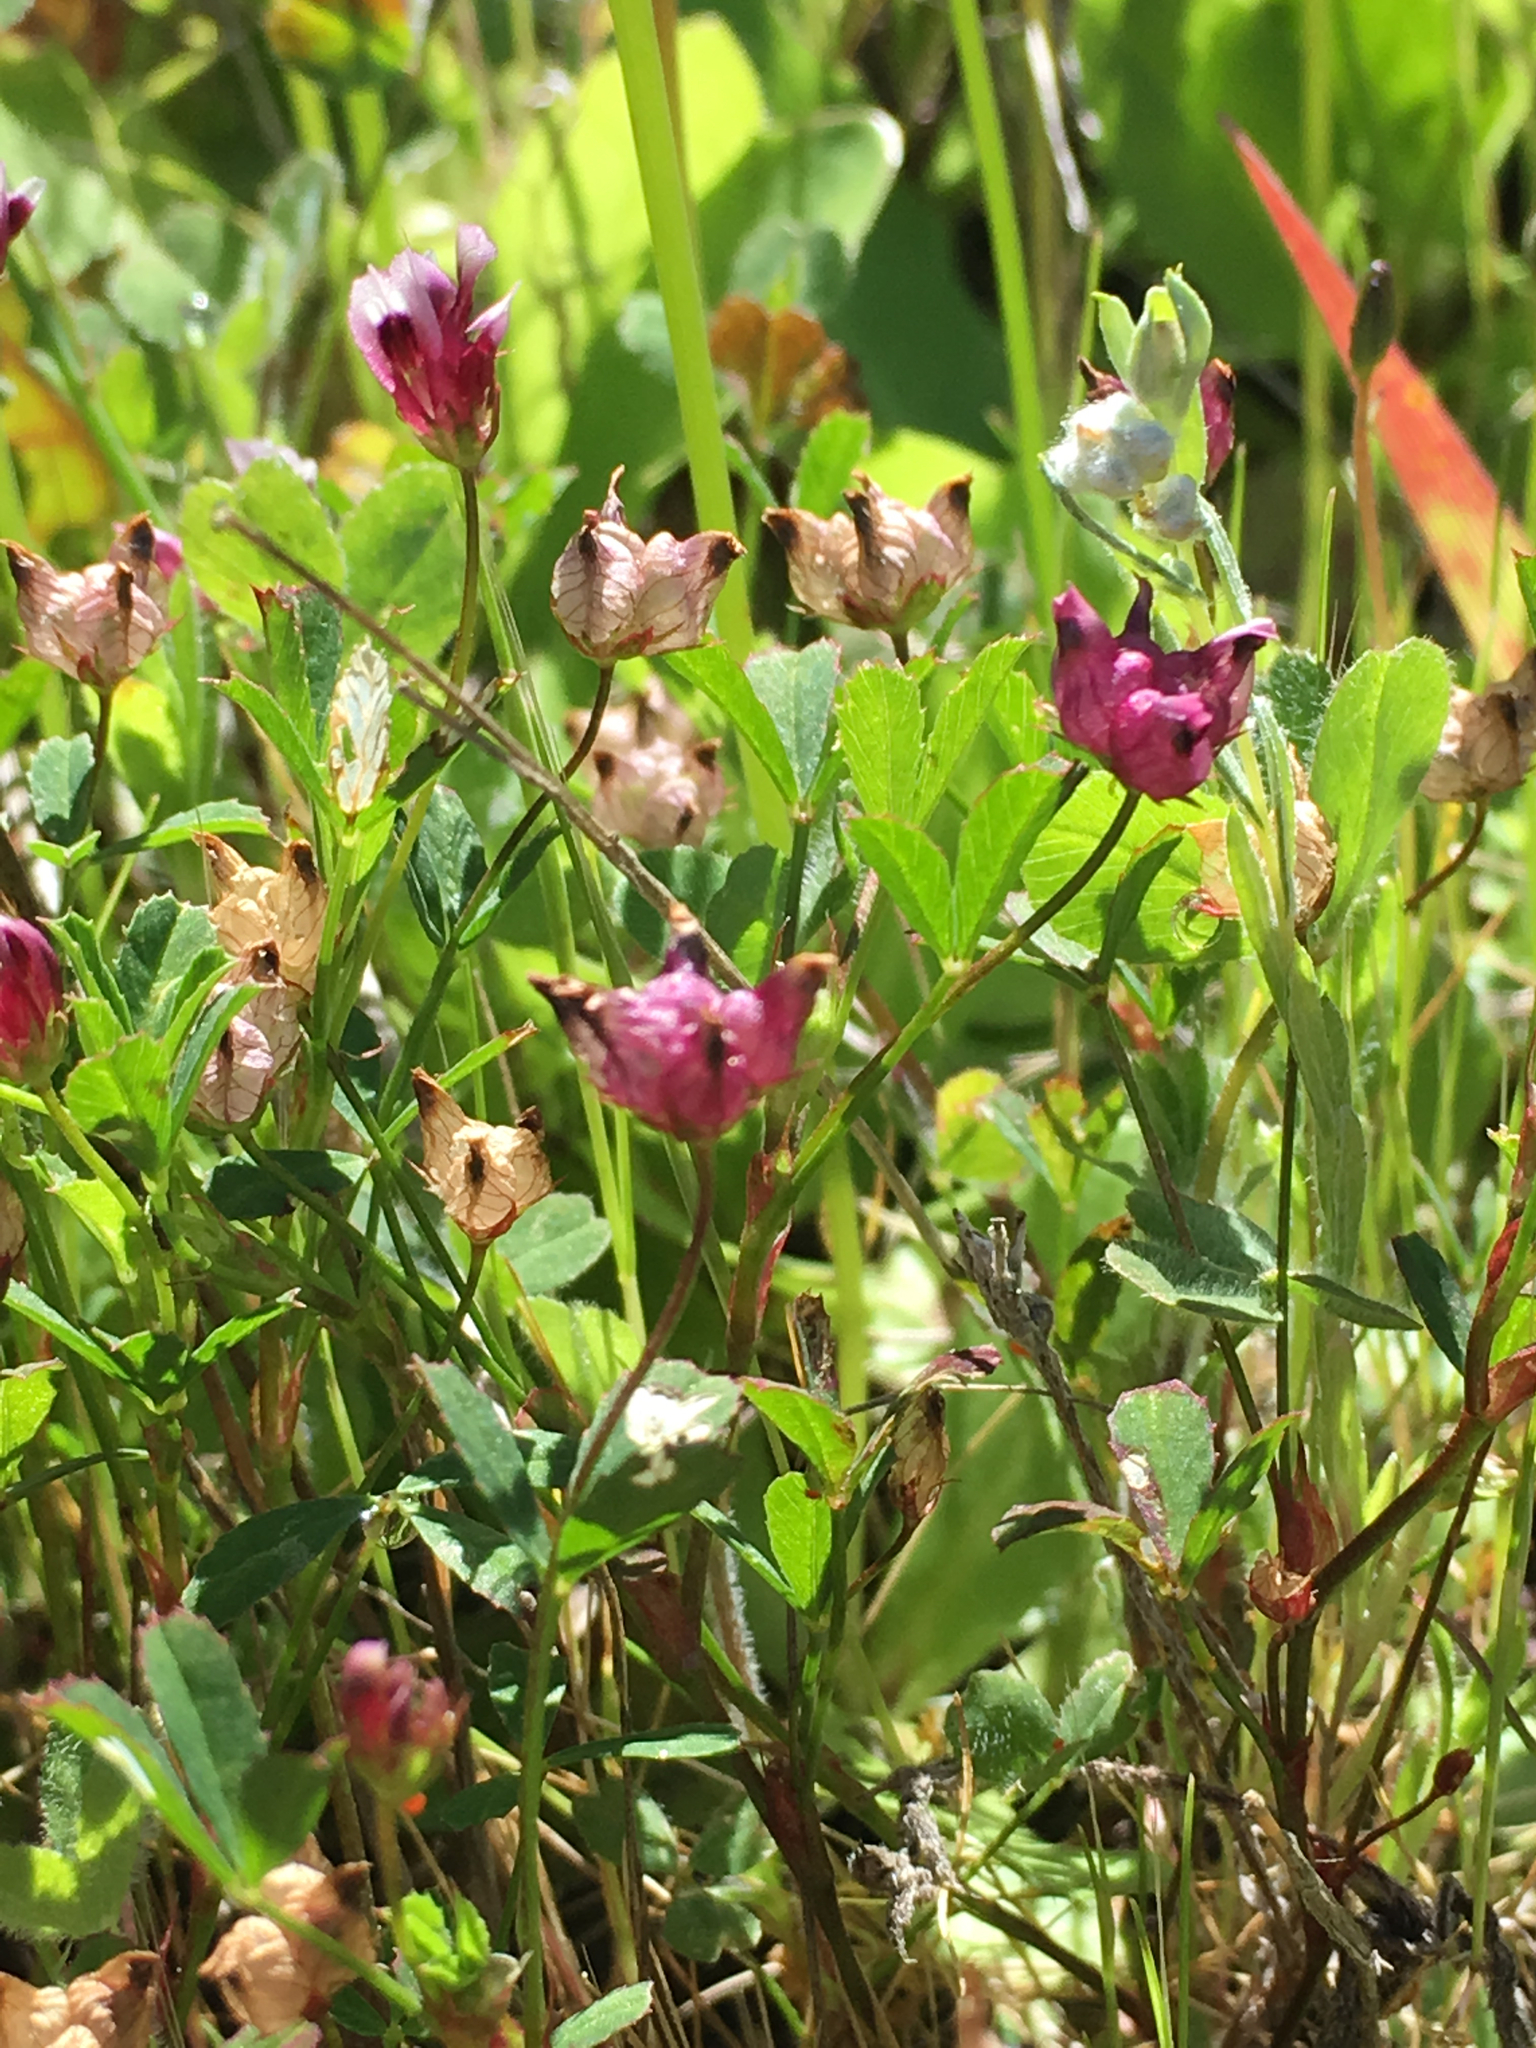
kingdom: Plantae
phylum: Tracheophyta
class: Magnoliopsida
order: Fabales
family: Fabaceae
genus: Trifolium
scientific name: Trifolium depauperatum
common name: Poverty clover
